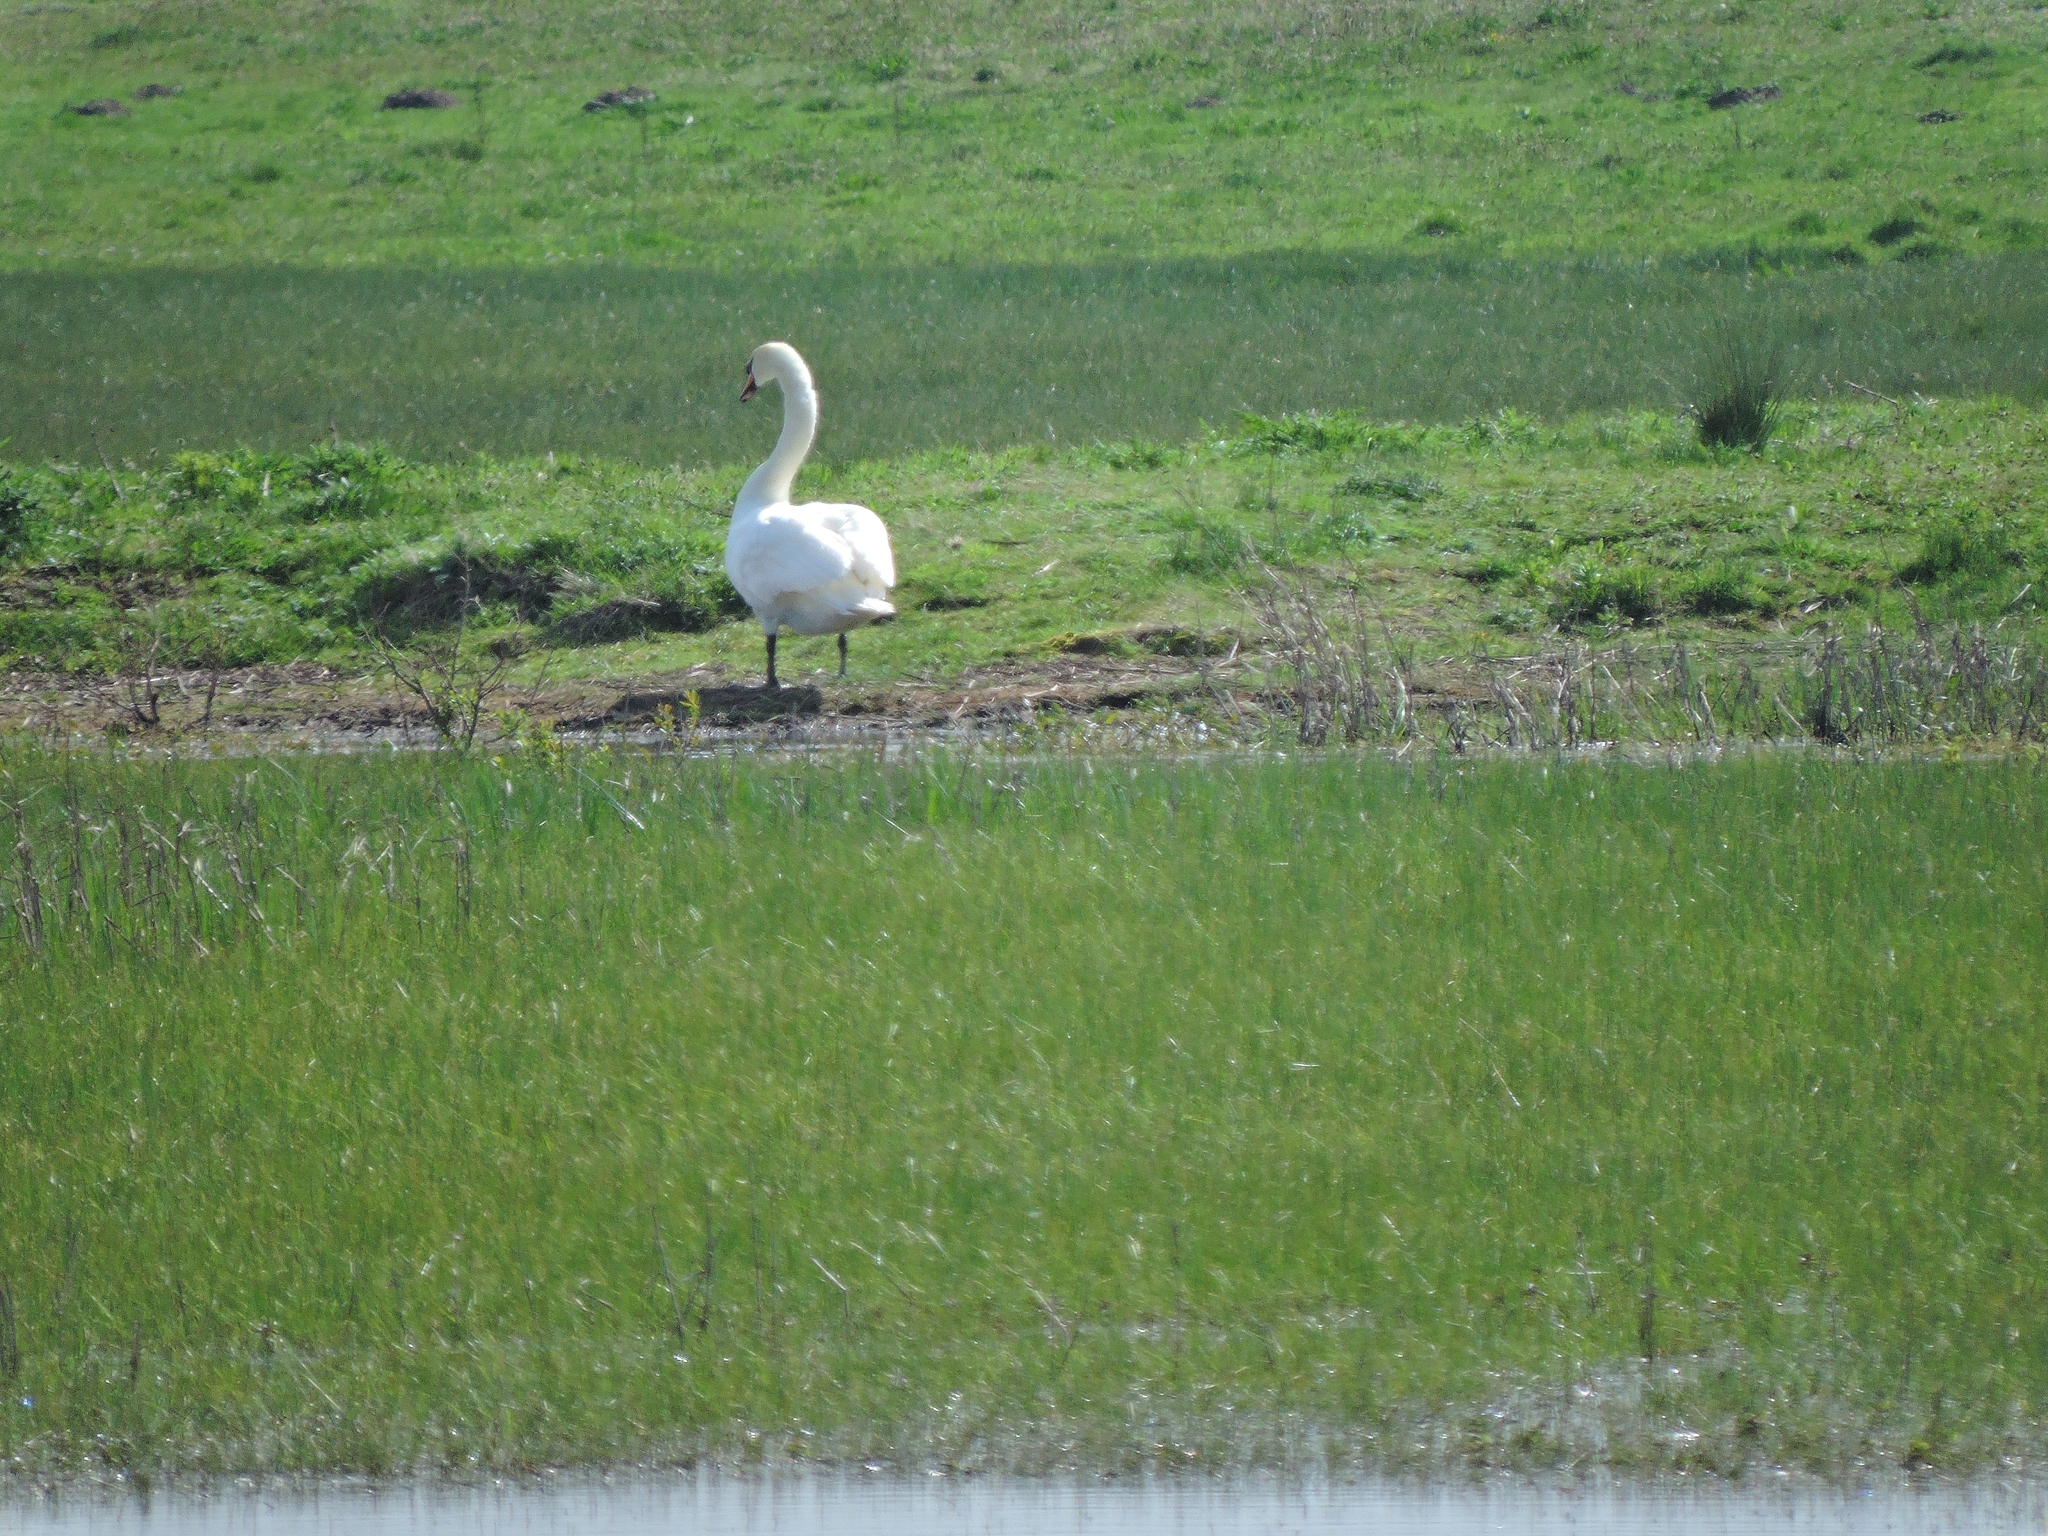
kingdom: Animalia
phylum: Chordata
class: Aves
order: Anseriformes
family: Anatidae
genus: Cygnus
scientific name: Cygnus olor
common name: Mute swan
